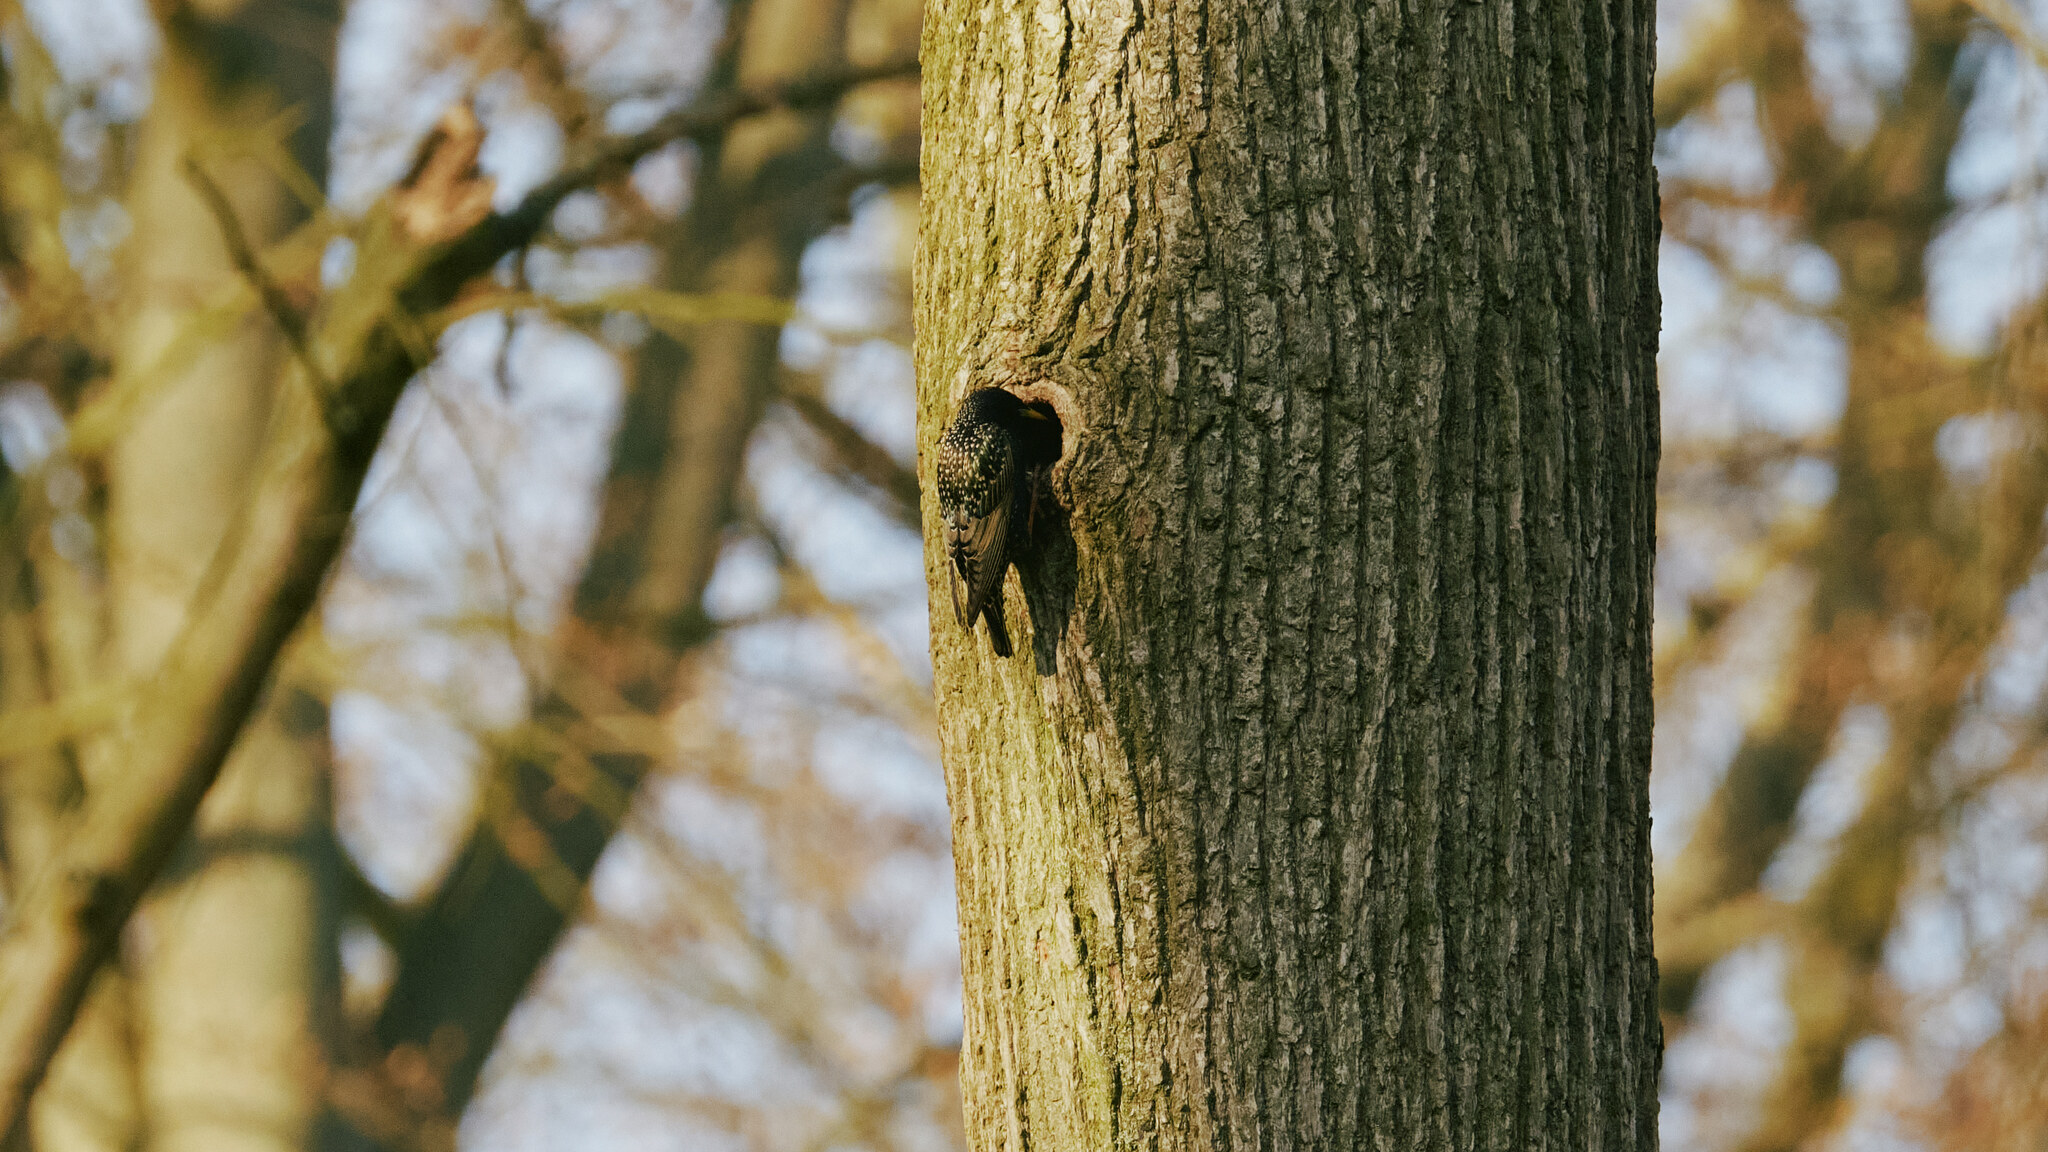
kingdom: Animalia
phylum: Chordata
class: Aves
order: Passeriformes
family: Sturnidae
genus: Sturnus
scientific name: Sturnus vulgaris
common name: Common starling
